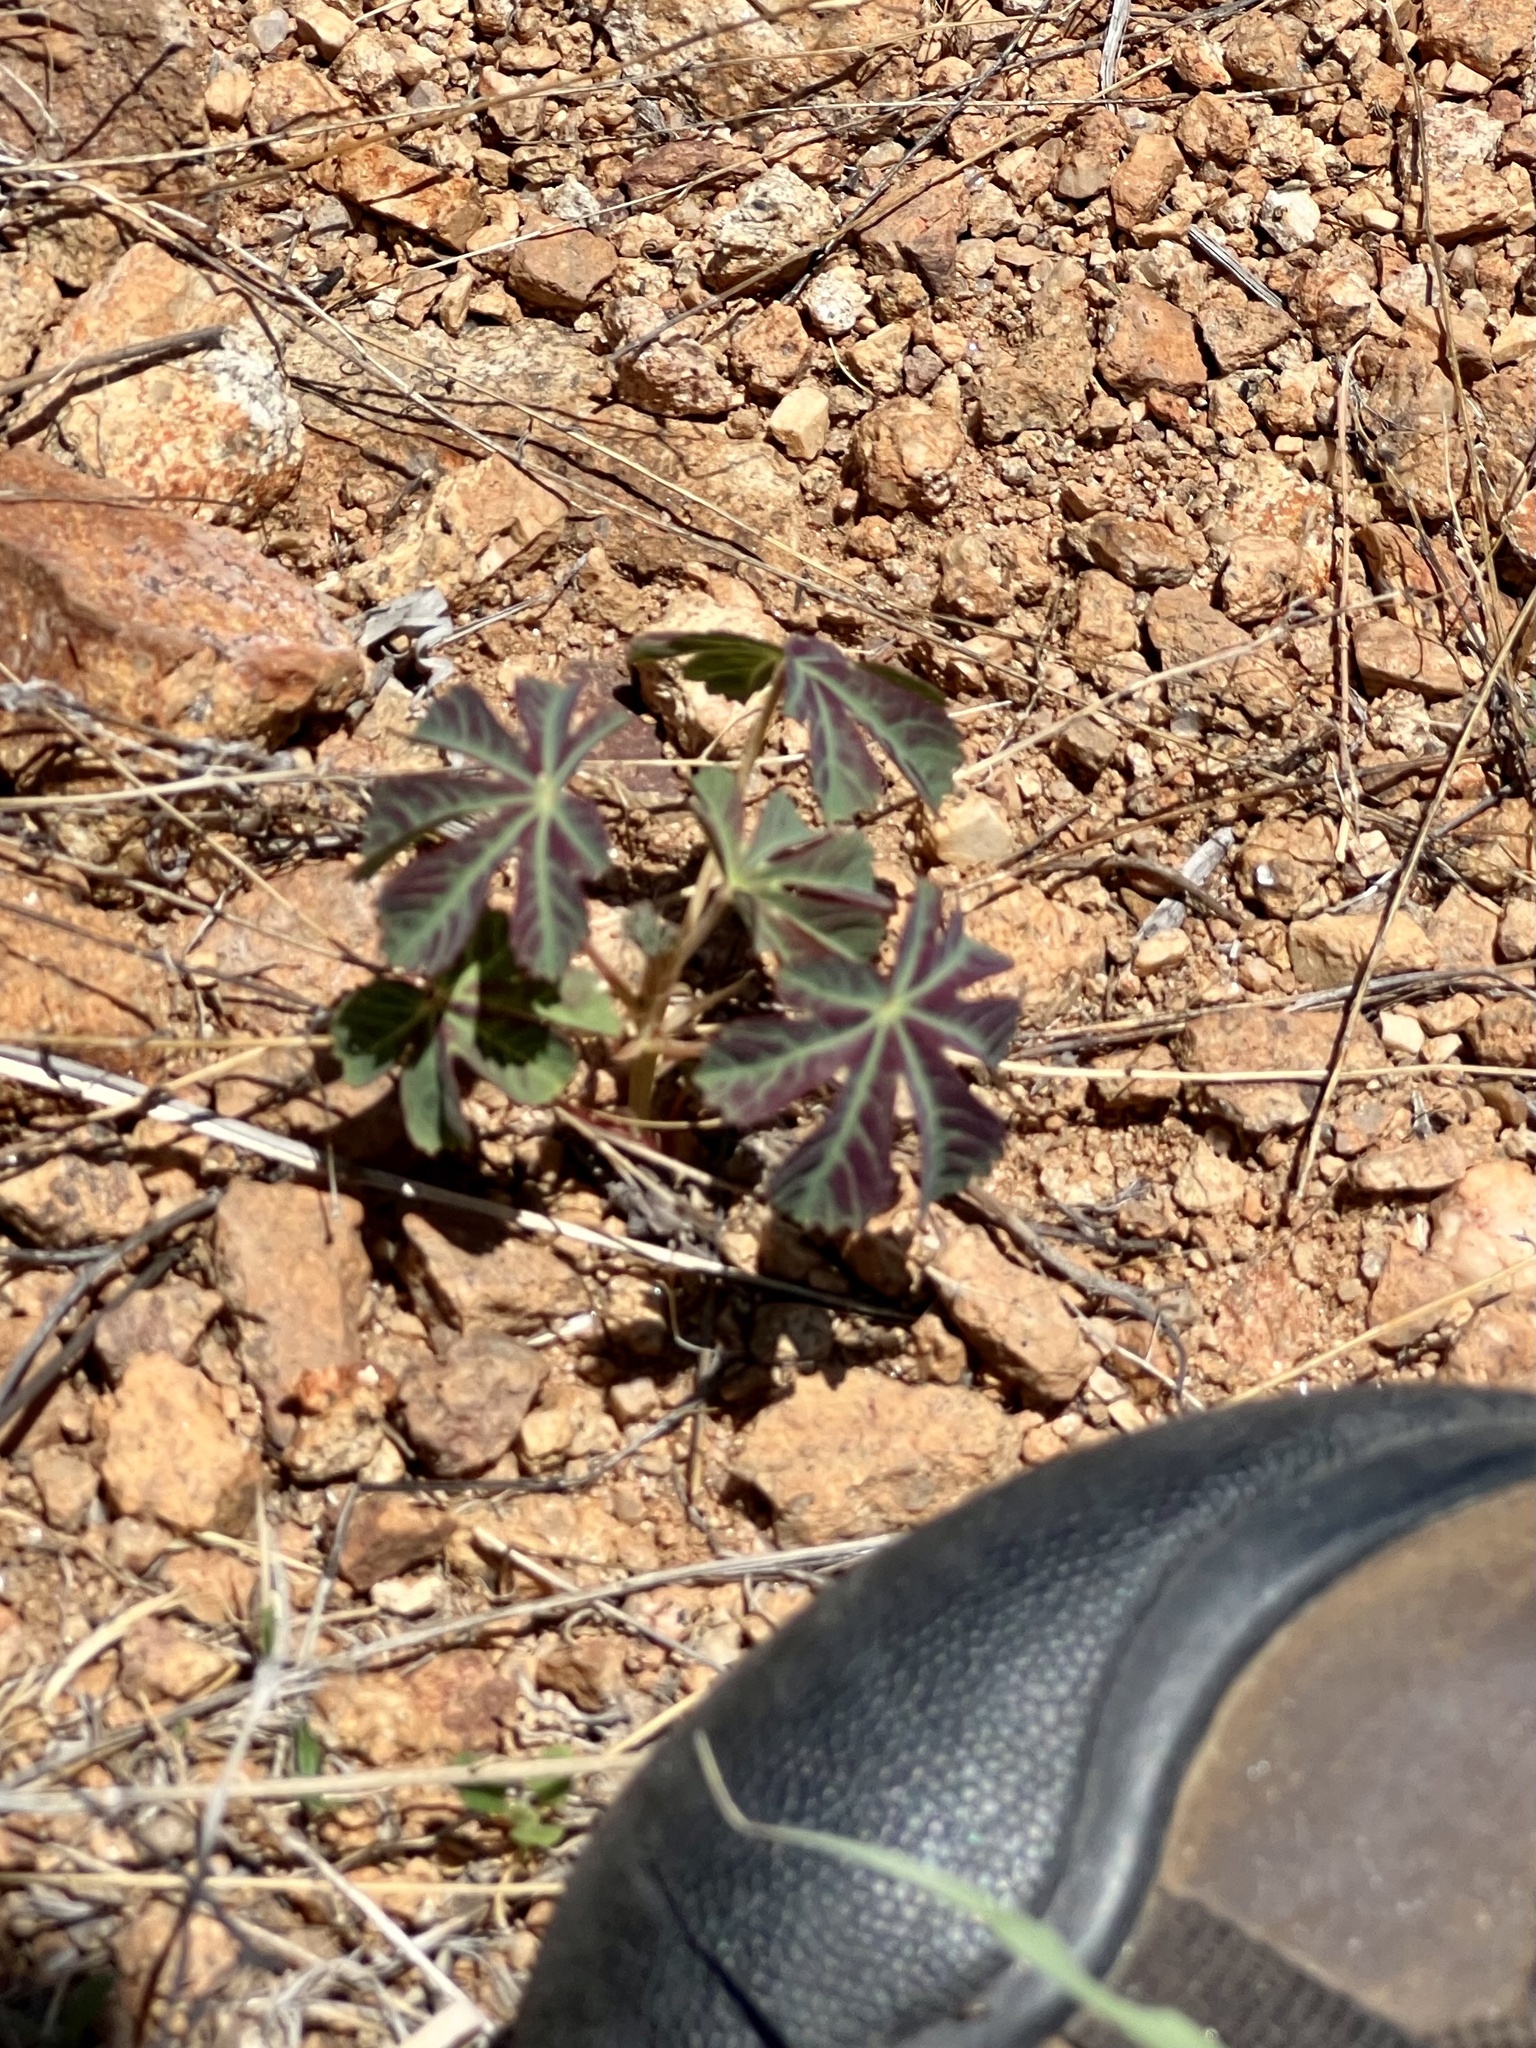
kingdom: Plantae
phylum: Tracheophyta
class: Magnoliopsida
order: Malvales
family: Cochlospermaceae
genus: Cochlospermum
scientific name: Cochlospermum palmatifidum
